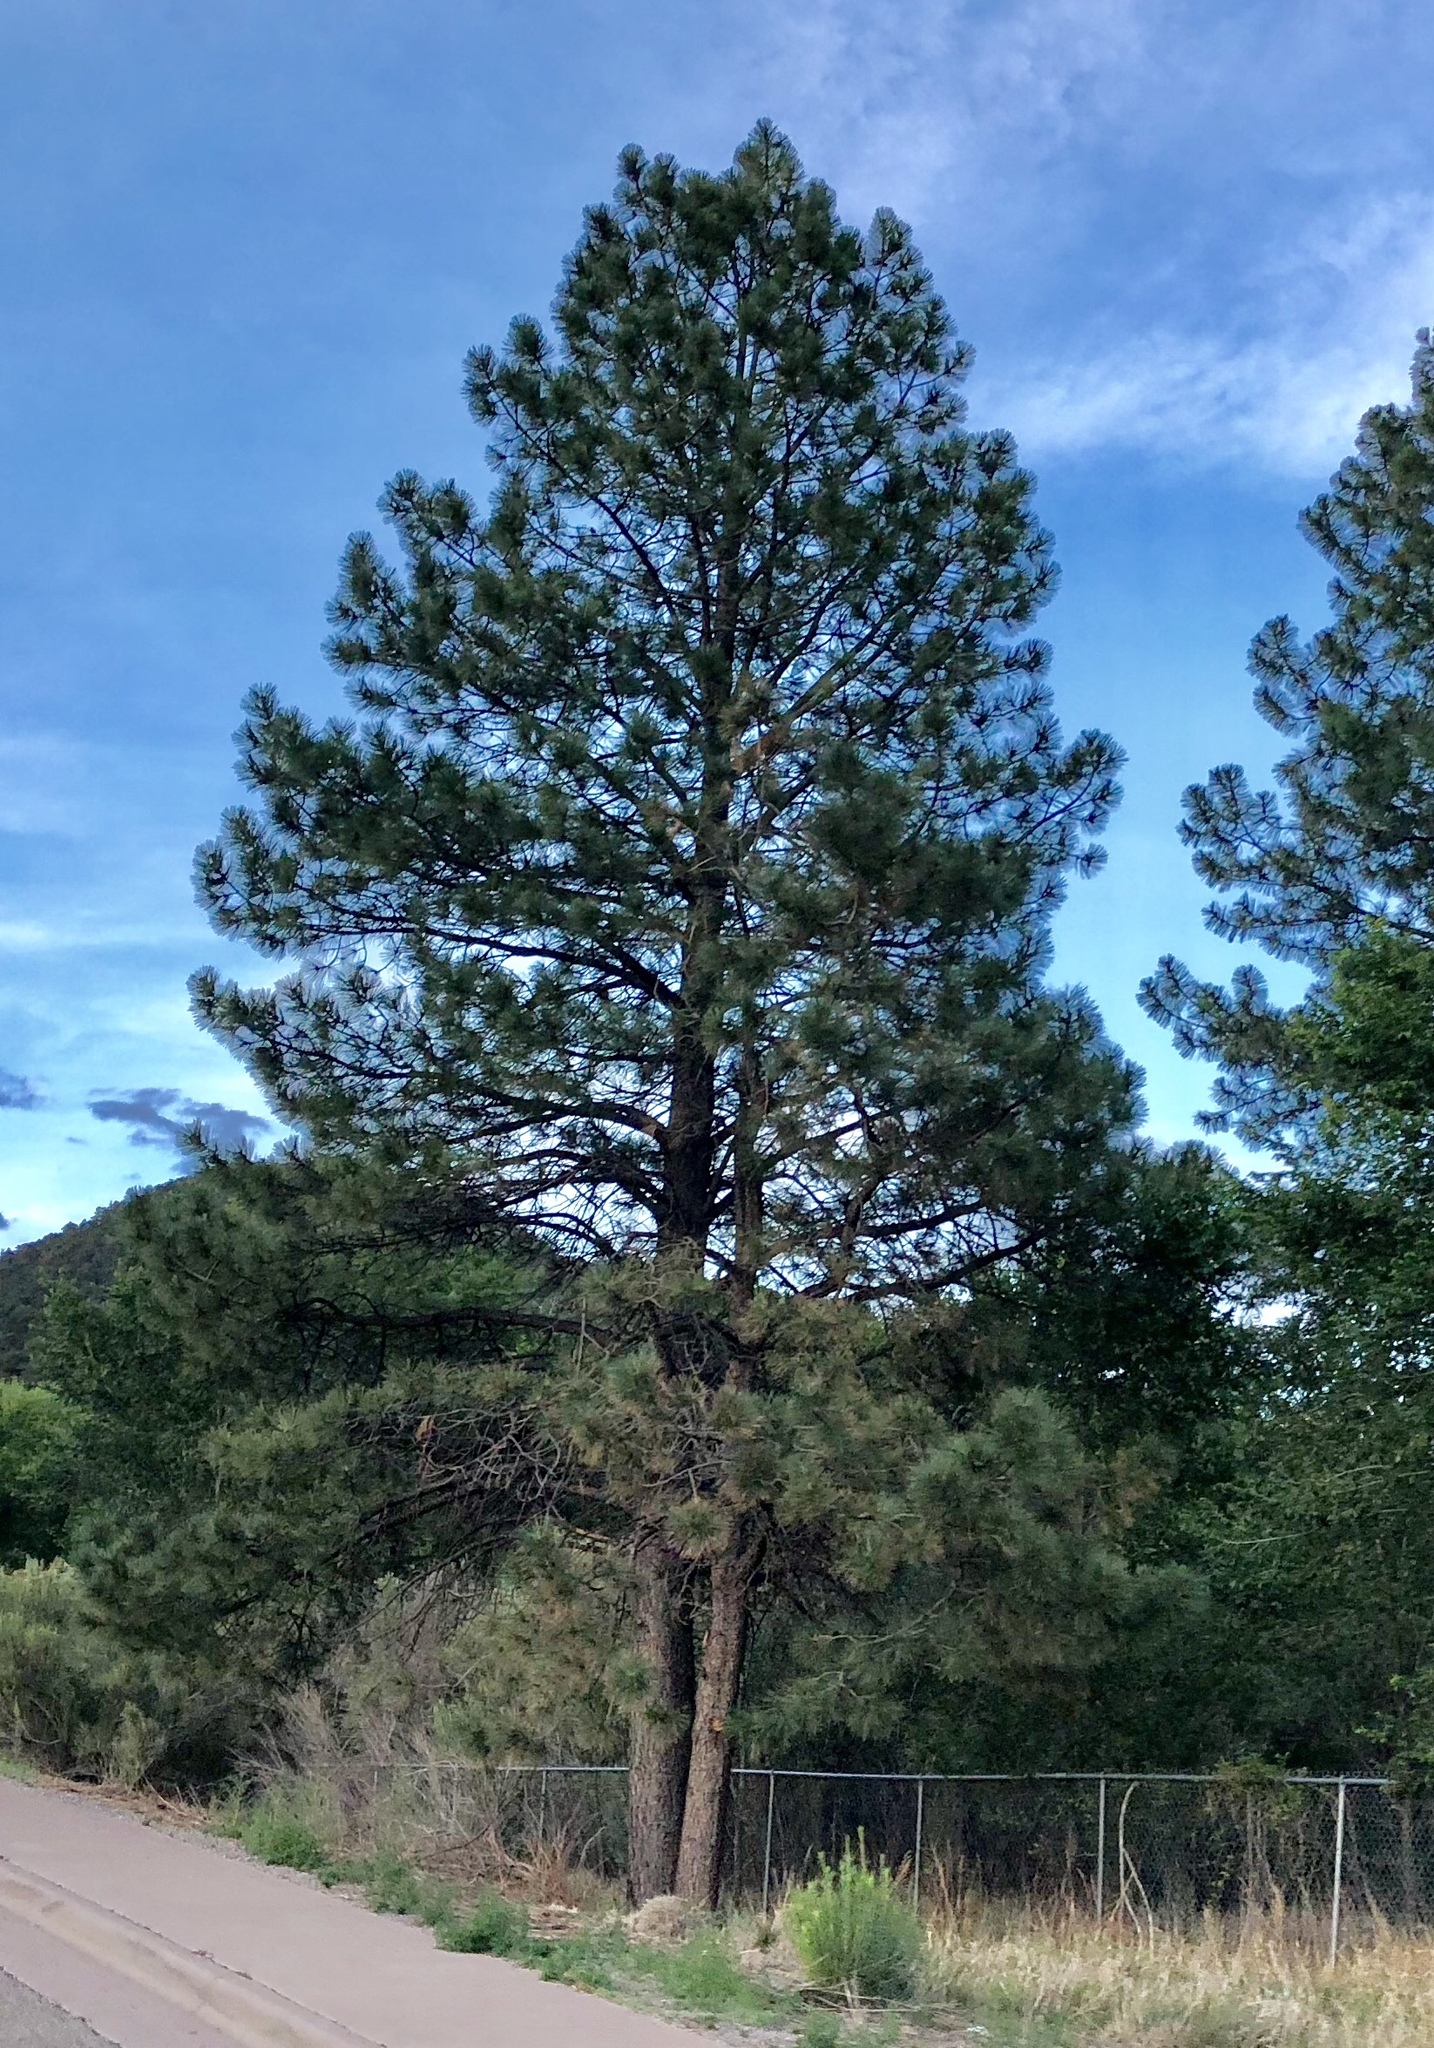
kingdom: Plantae
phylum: Tracheophyta
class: Pinopsida
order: Pinales
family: Pinaceae
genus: Pinus
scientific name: Pinus ponderosa
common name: Western yellow-pine
